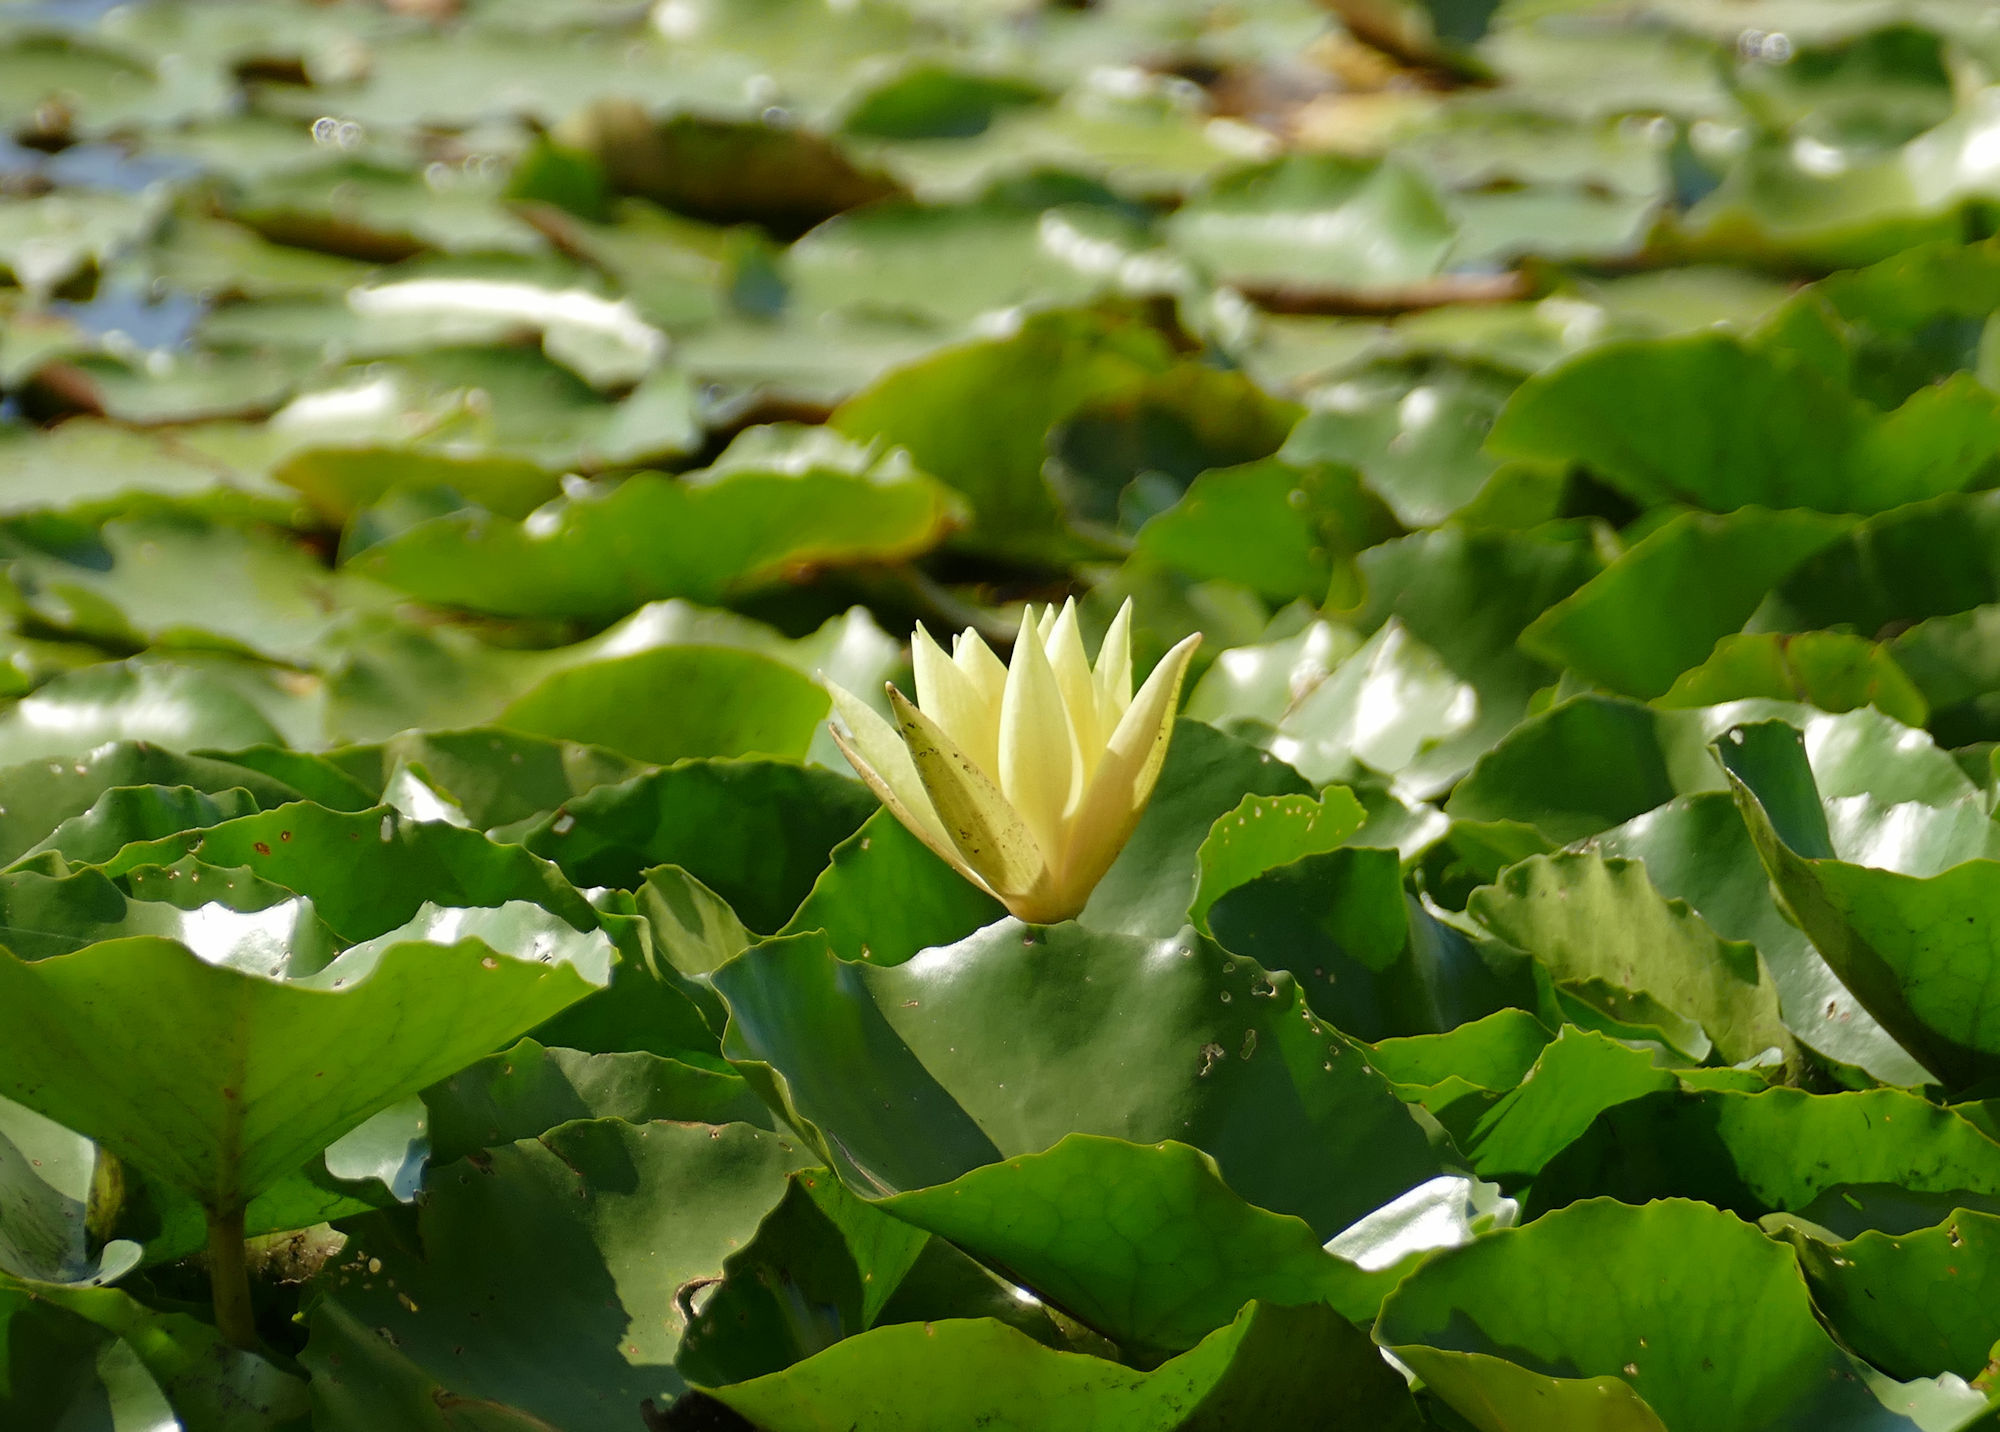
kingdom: Plantae
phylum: Tracheophyta
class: Magnoliopsida
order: Nymphaeales
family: Nymphaeaceae
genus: Nymphaea
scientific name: Nymphaea mexicana
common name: Banana water-lily
